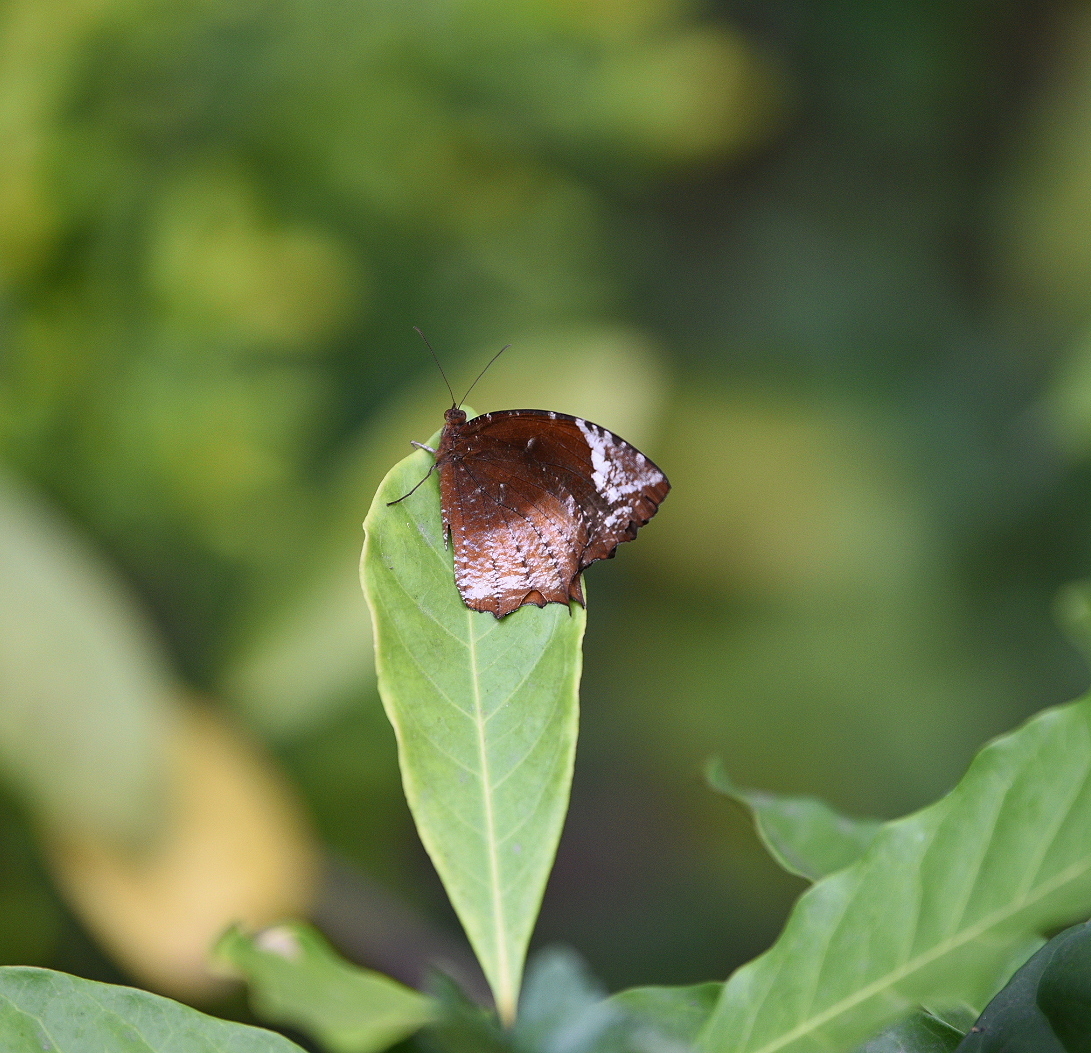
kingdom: Animalia
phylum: Arthropoda
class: Insecta
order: Lepidoptera
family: Nymphalidae
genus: Elymnias
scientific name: Elymnias caudata
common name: Tailed palmfly
